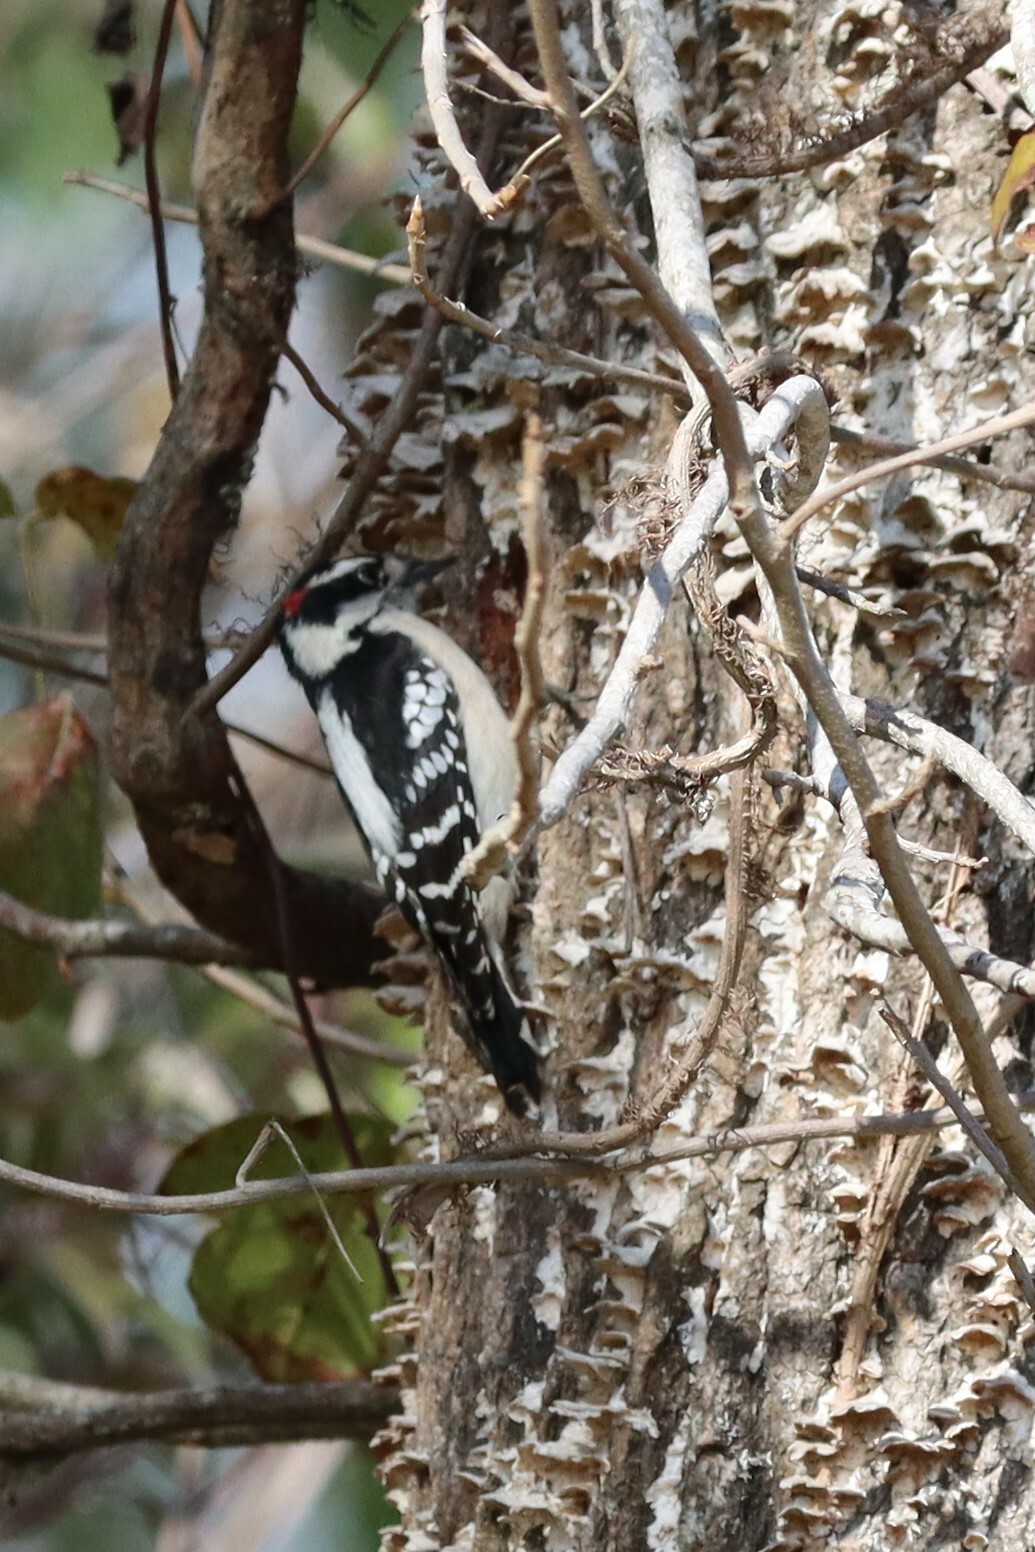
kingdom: Animalia
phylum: Chordata
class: Aves
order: Piciformes
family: Picidae
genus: Dryobates
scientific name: Dryobates pubescens
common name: Downy woodpecker
